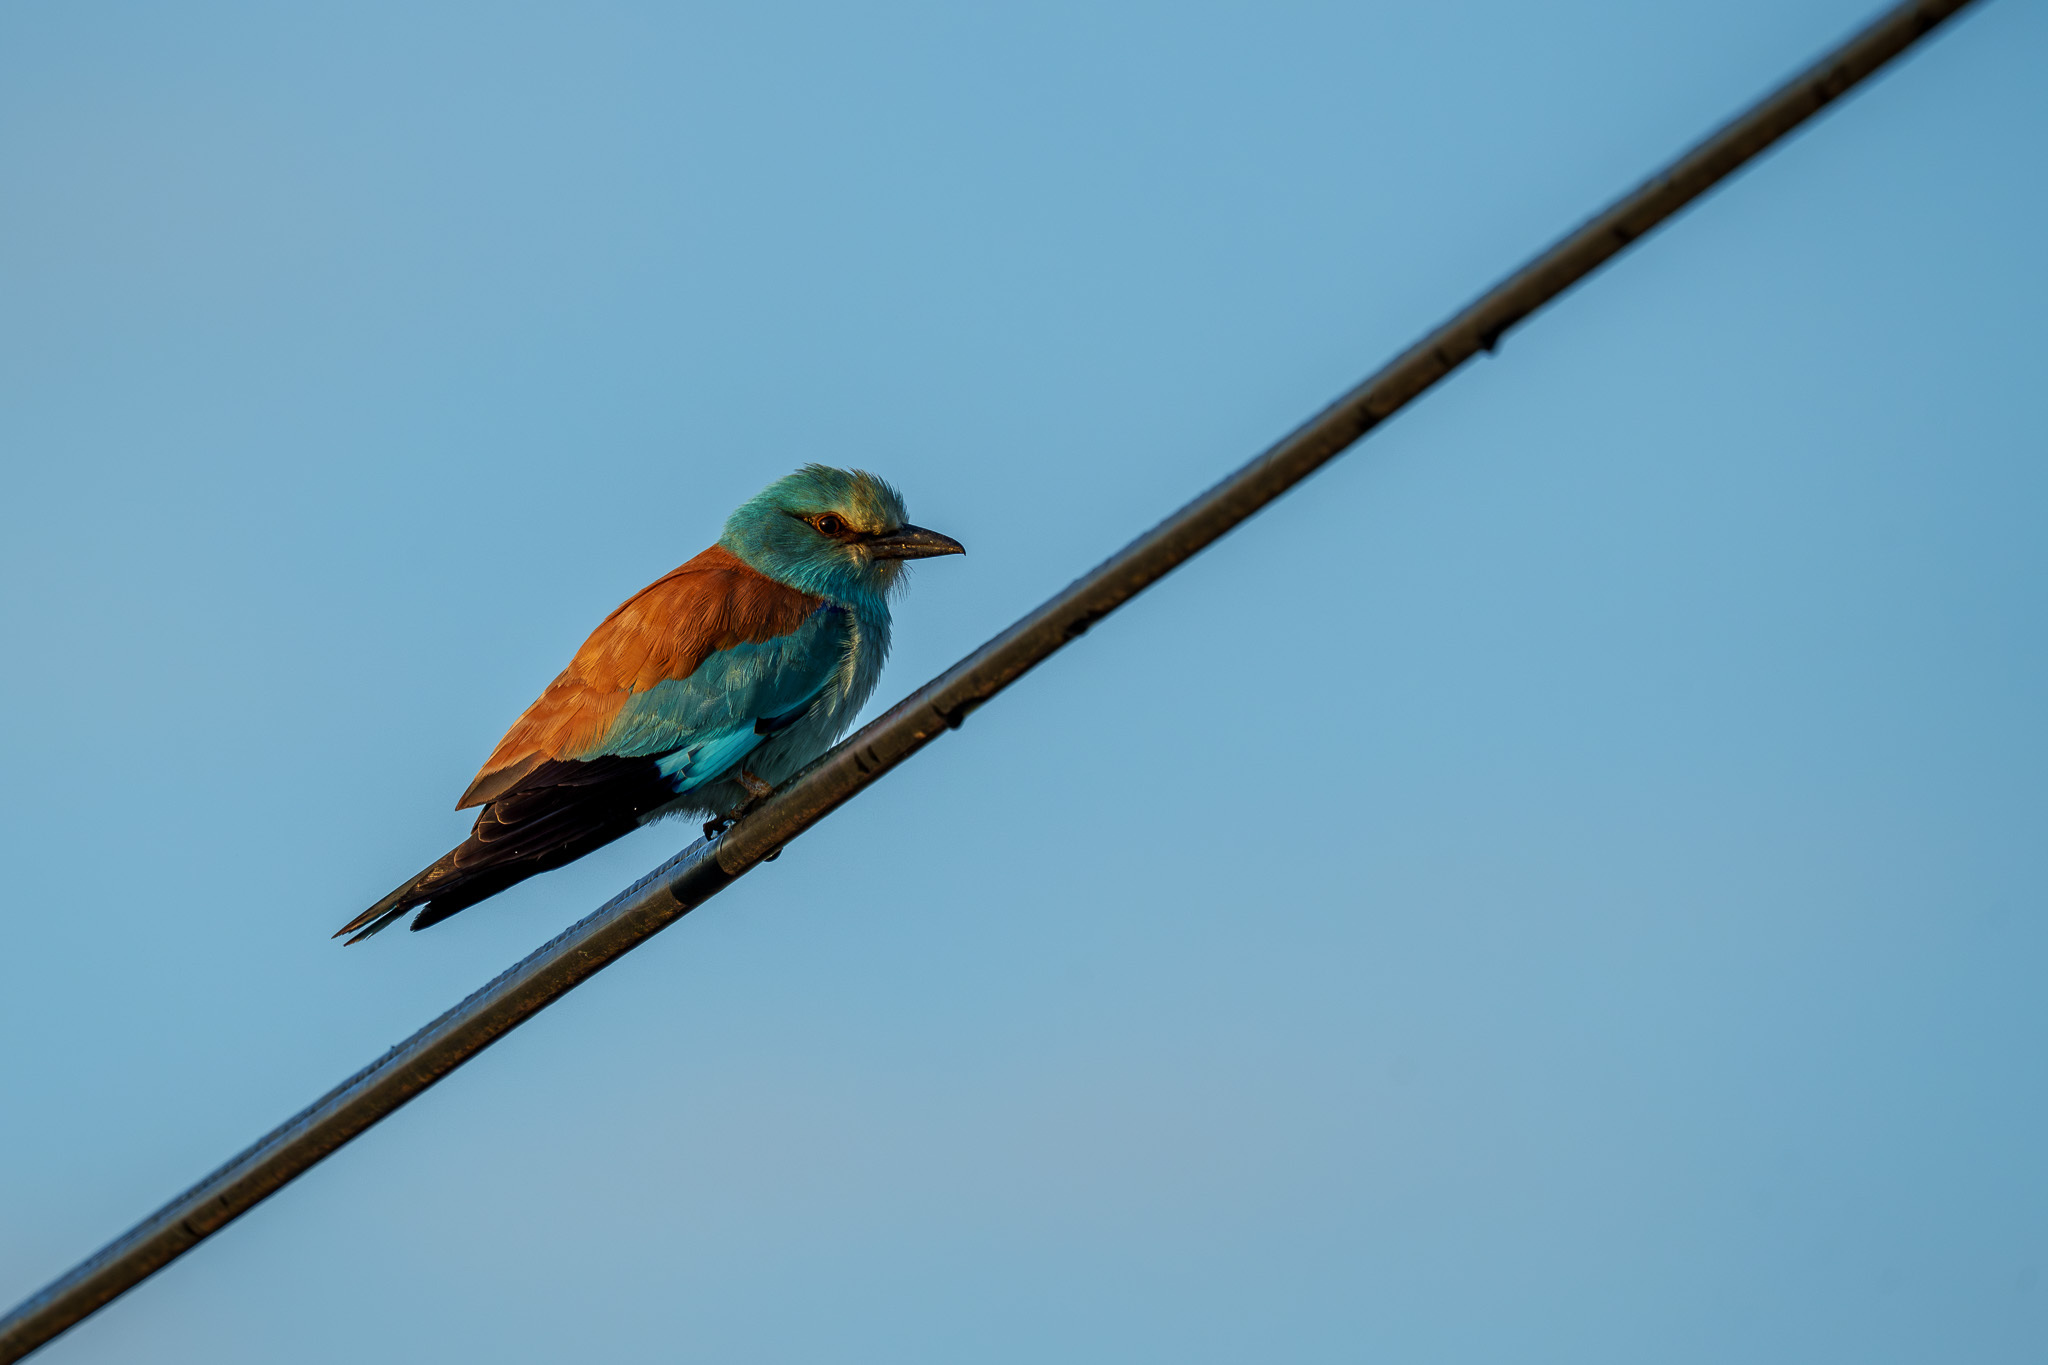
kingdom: Animalia
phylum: Chordata
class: Aves
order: Coraciiformes
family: Coraciidae
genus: Coracias
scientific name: Coracias garrulus
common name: European roller
